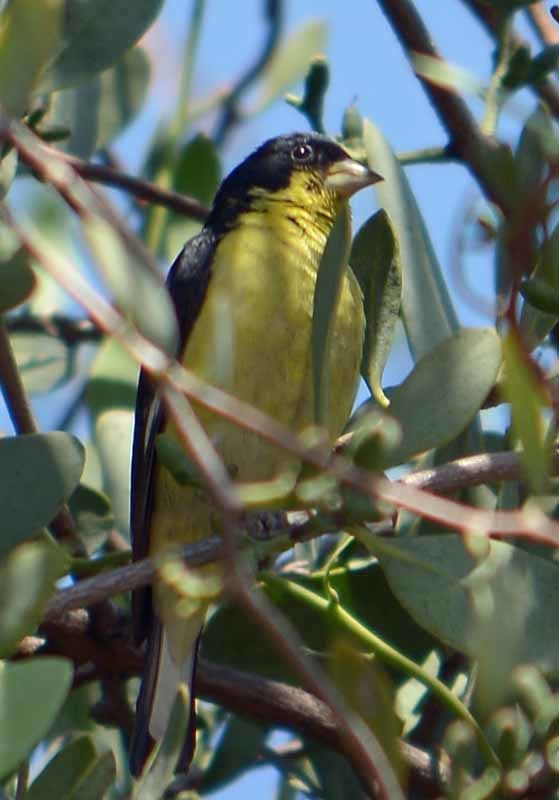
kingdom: Animalia
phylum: Chordata
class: Aves
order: Passeriformes
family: Fringillidae
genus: Spinus
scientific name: Spinus psaltria
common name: Lesser goldfinch
